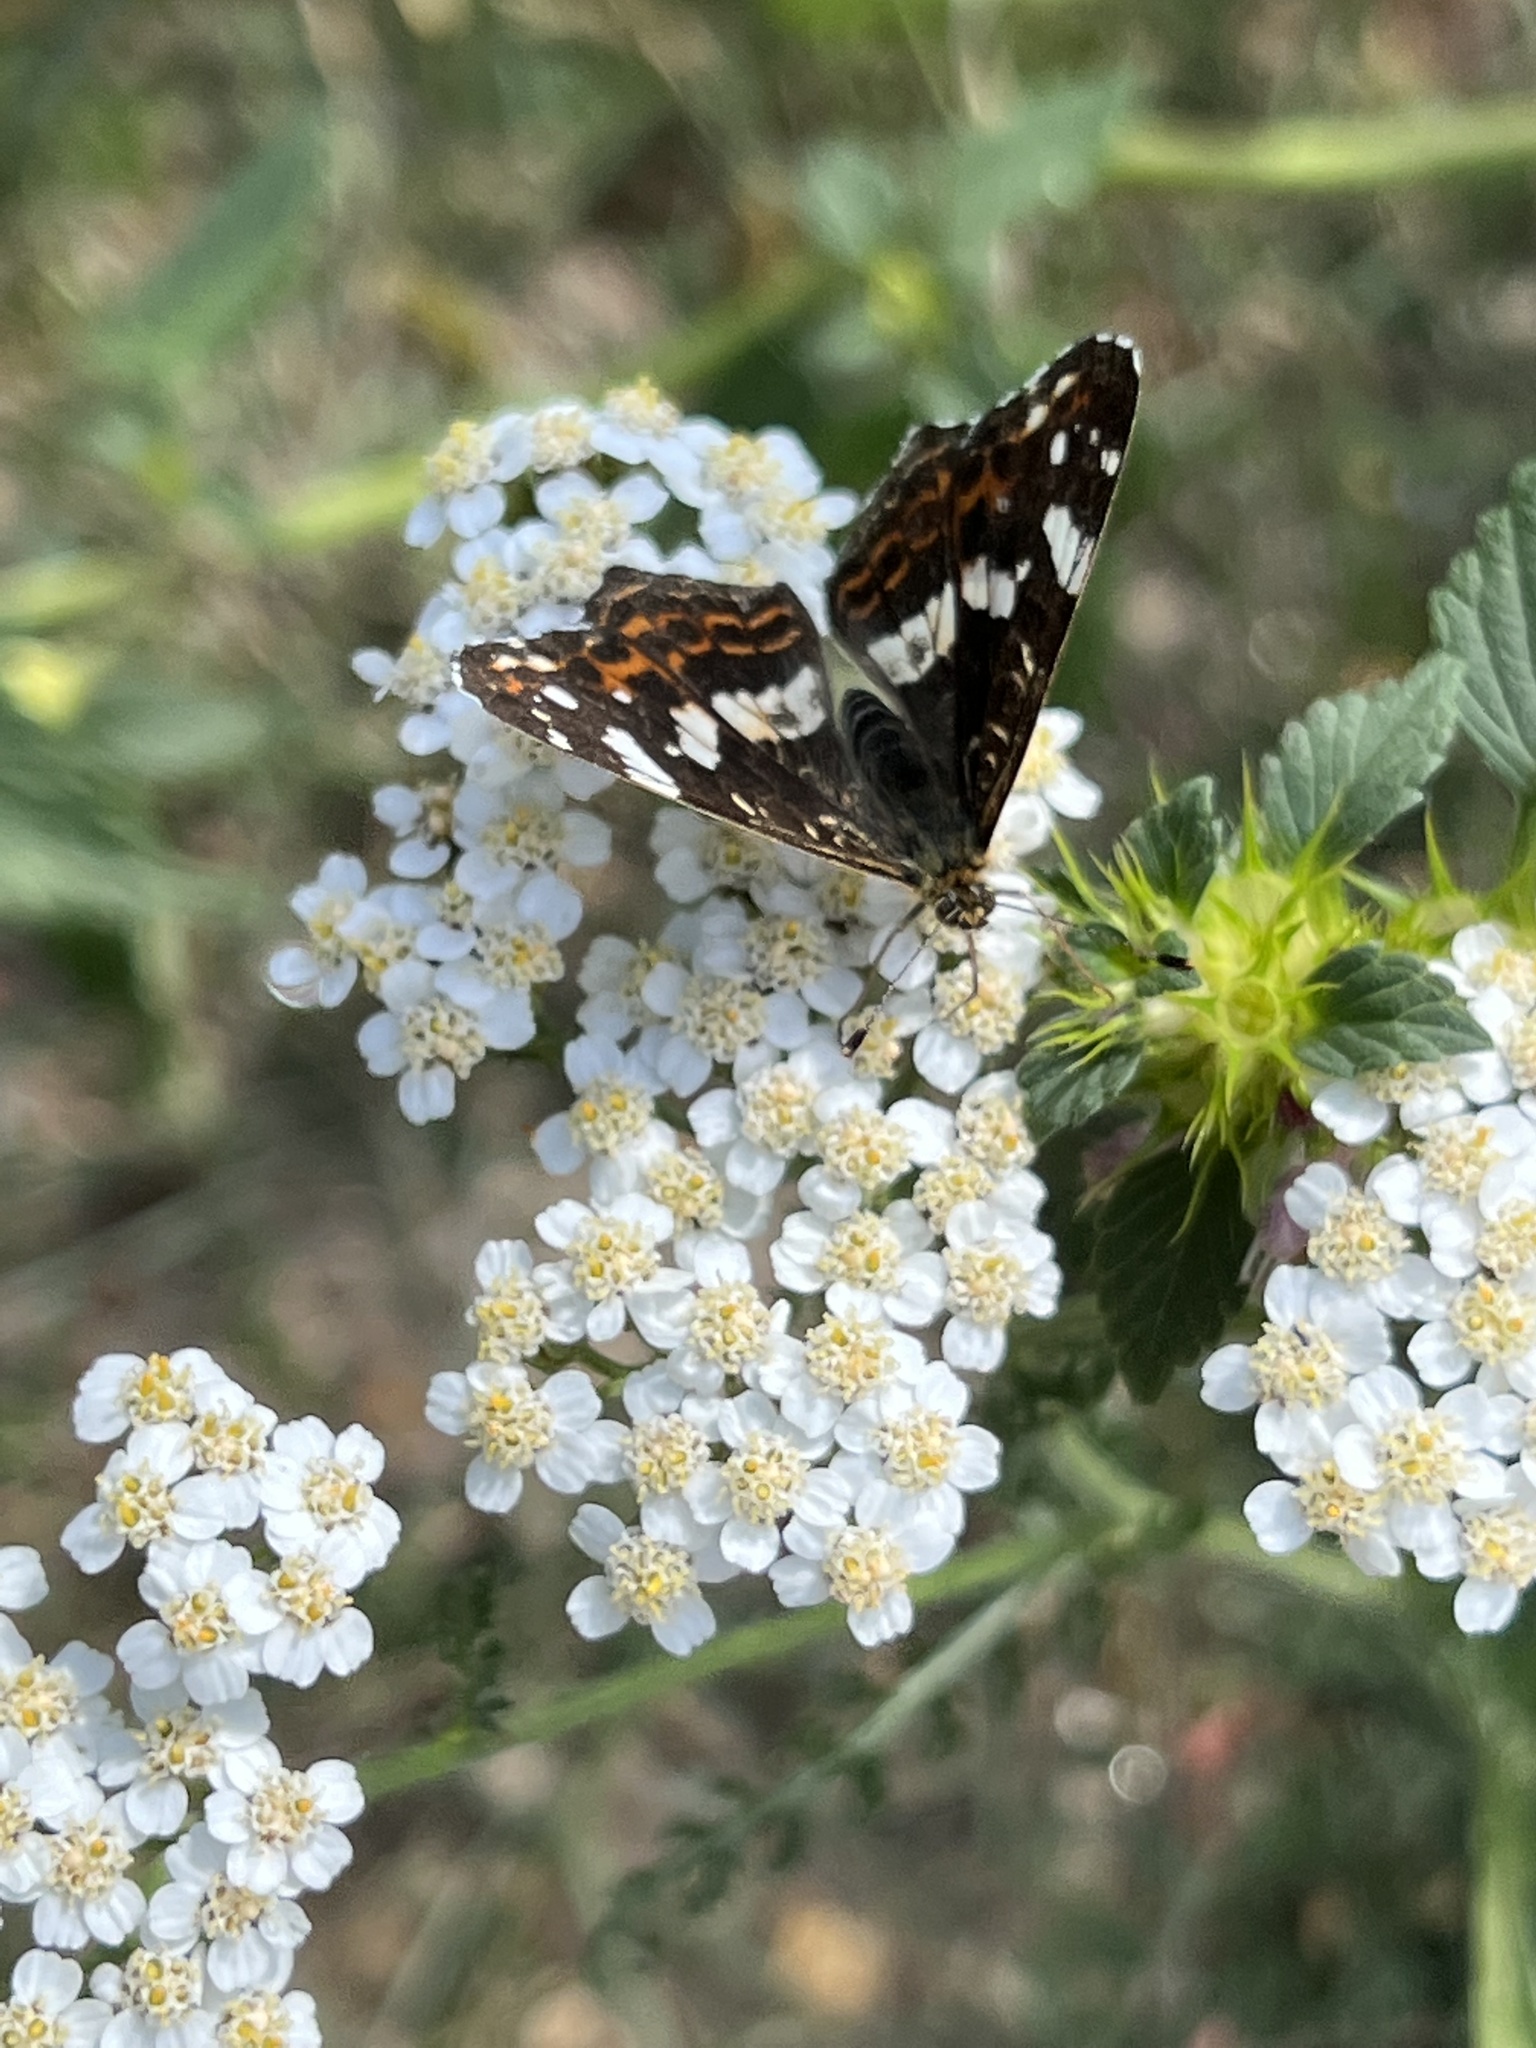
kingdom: Animalia
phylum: Arthropoda
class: Insecta
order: Lepidoptera
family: Nymphalidae
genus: Araschnia
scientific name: Araschnia levana
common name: Map butterfly
